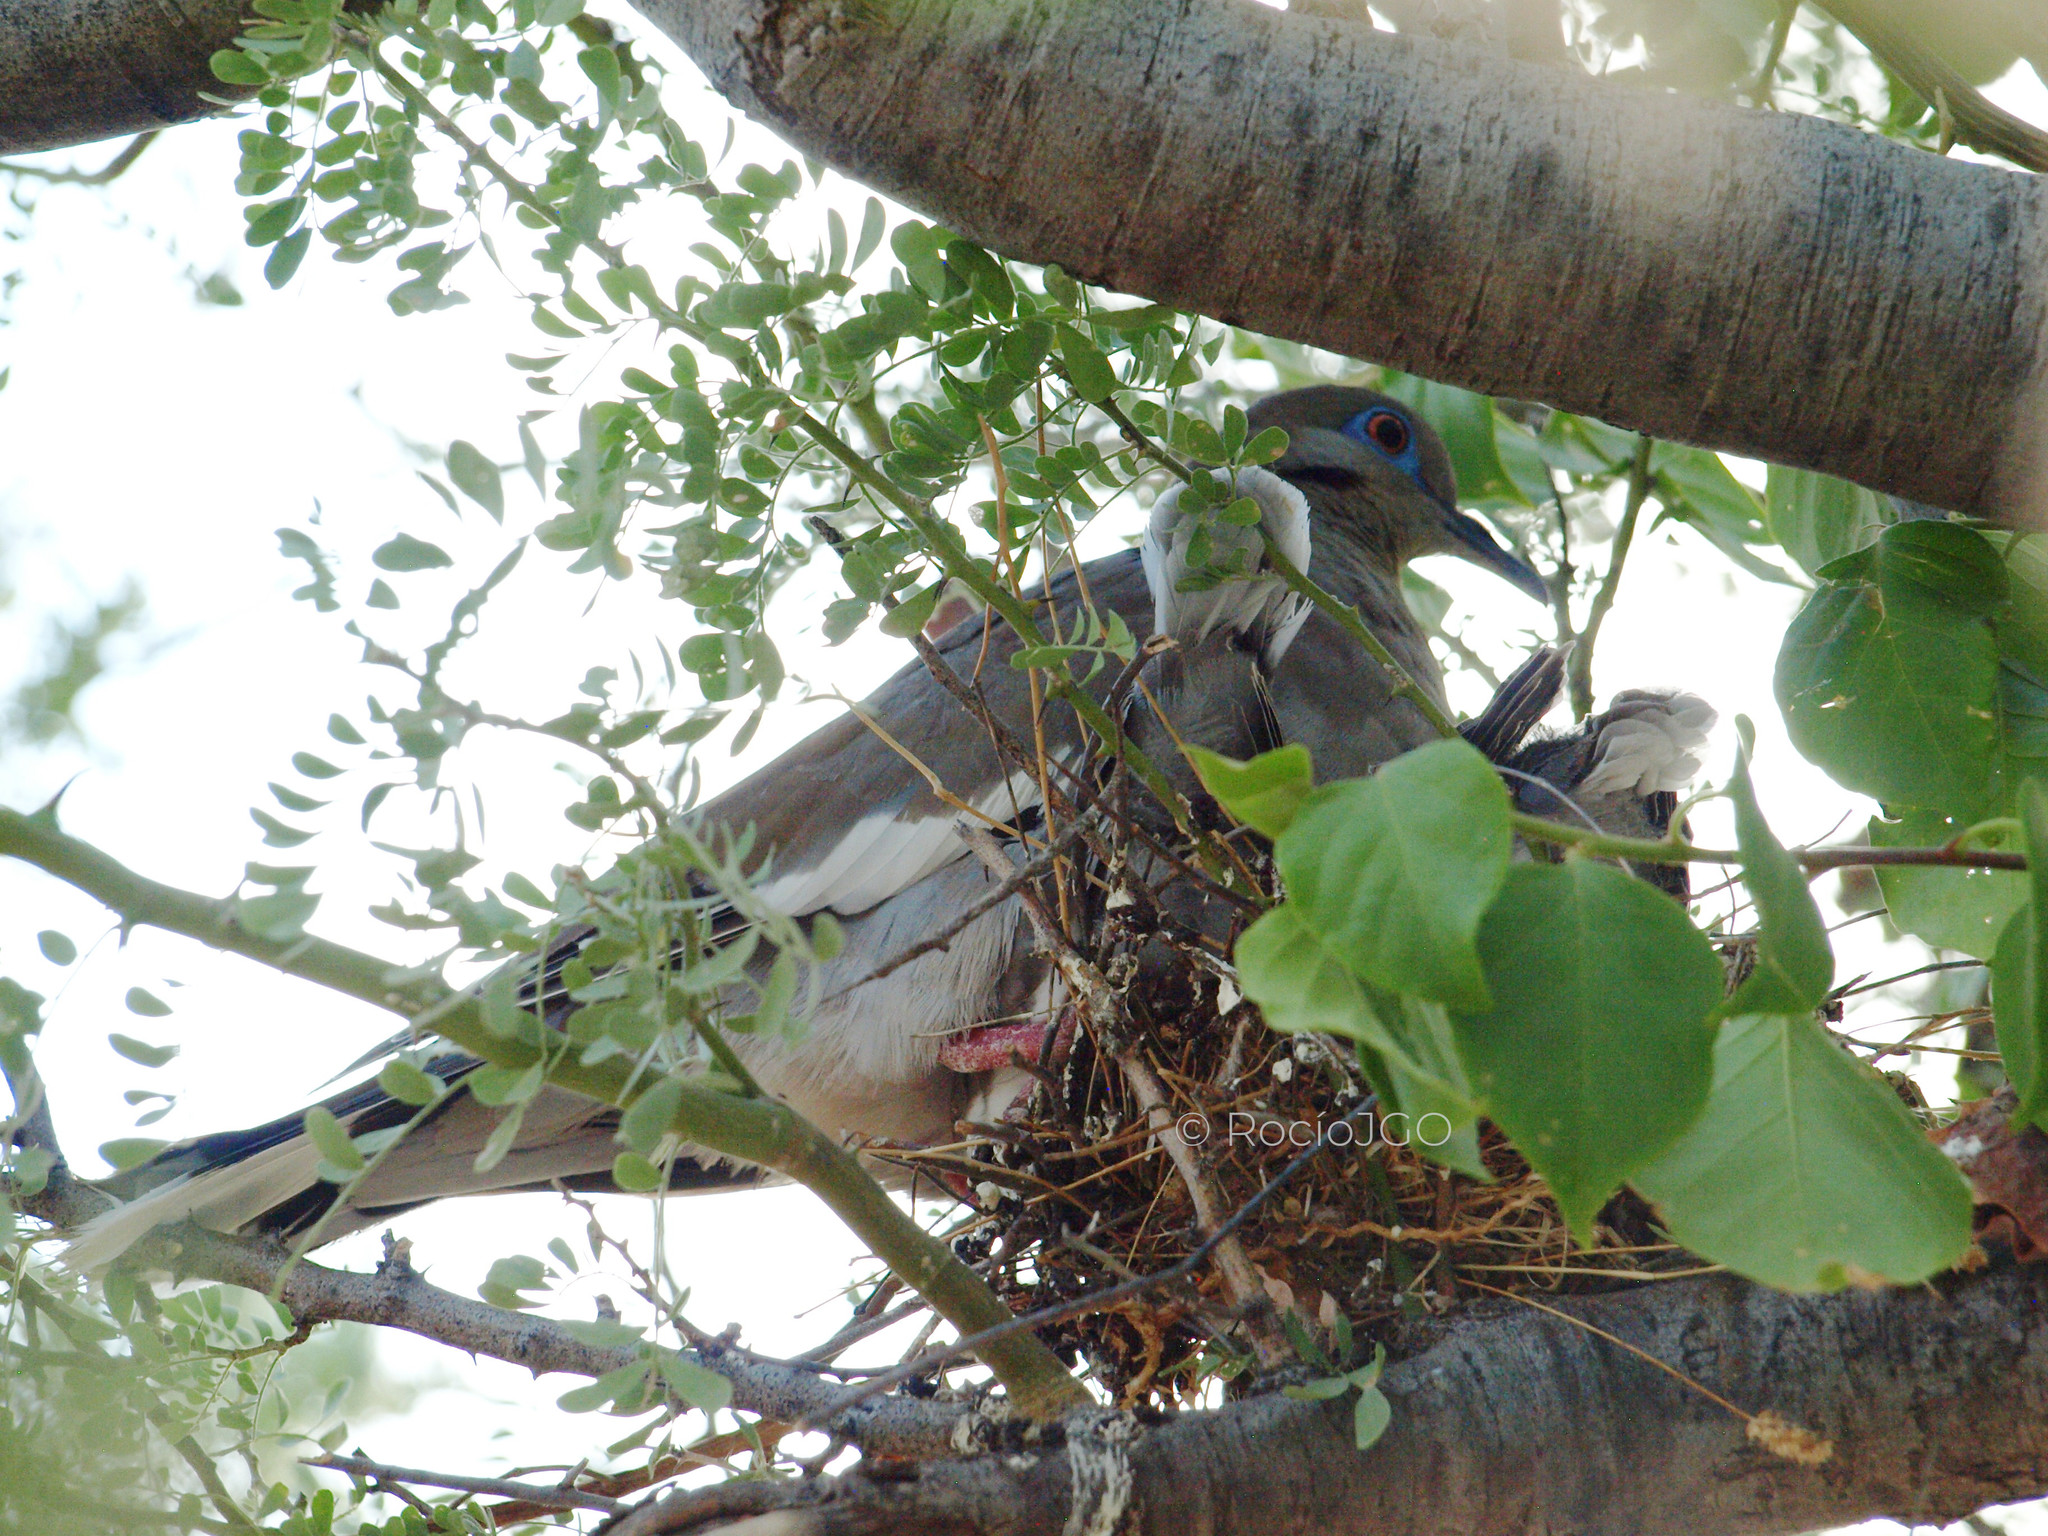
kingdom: Animalia
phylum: Chordata
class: Aves
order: Columbiformes
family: Columbidae
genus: Zenaida
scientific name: Zenaida asiatica
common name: White-winged dove
